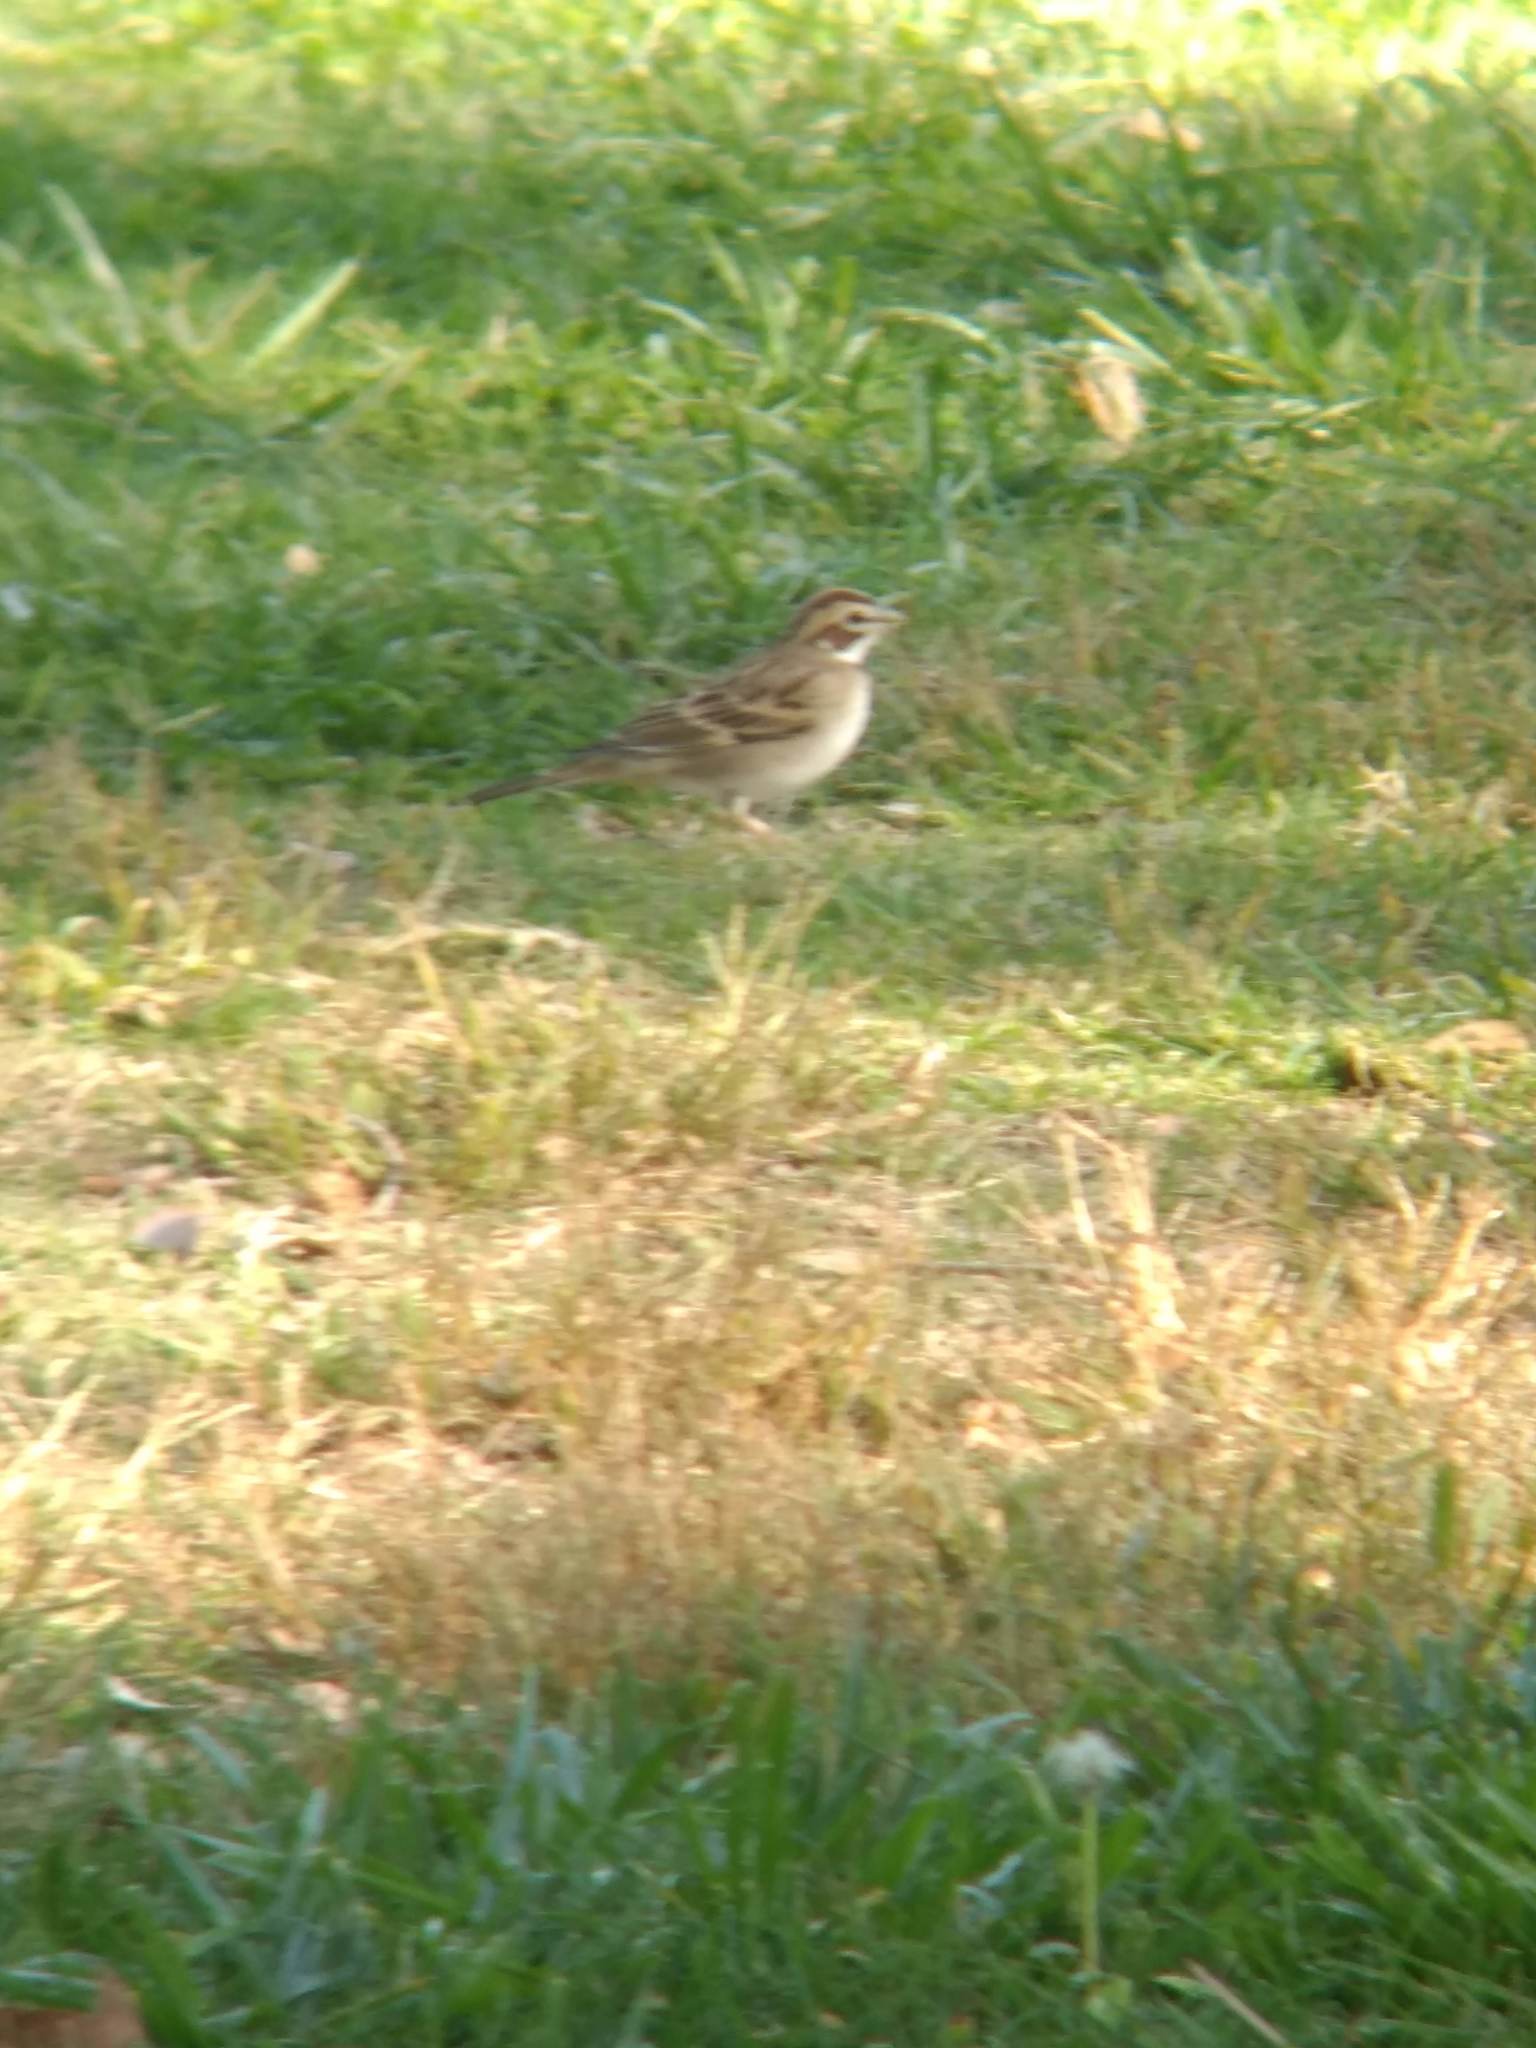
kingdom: Animalia
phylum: Chordata
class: Aves
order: Passeriformes
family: Passerellidae
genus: Chondestes
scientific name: Chondestes grammacus
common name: Lark sparrow
